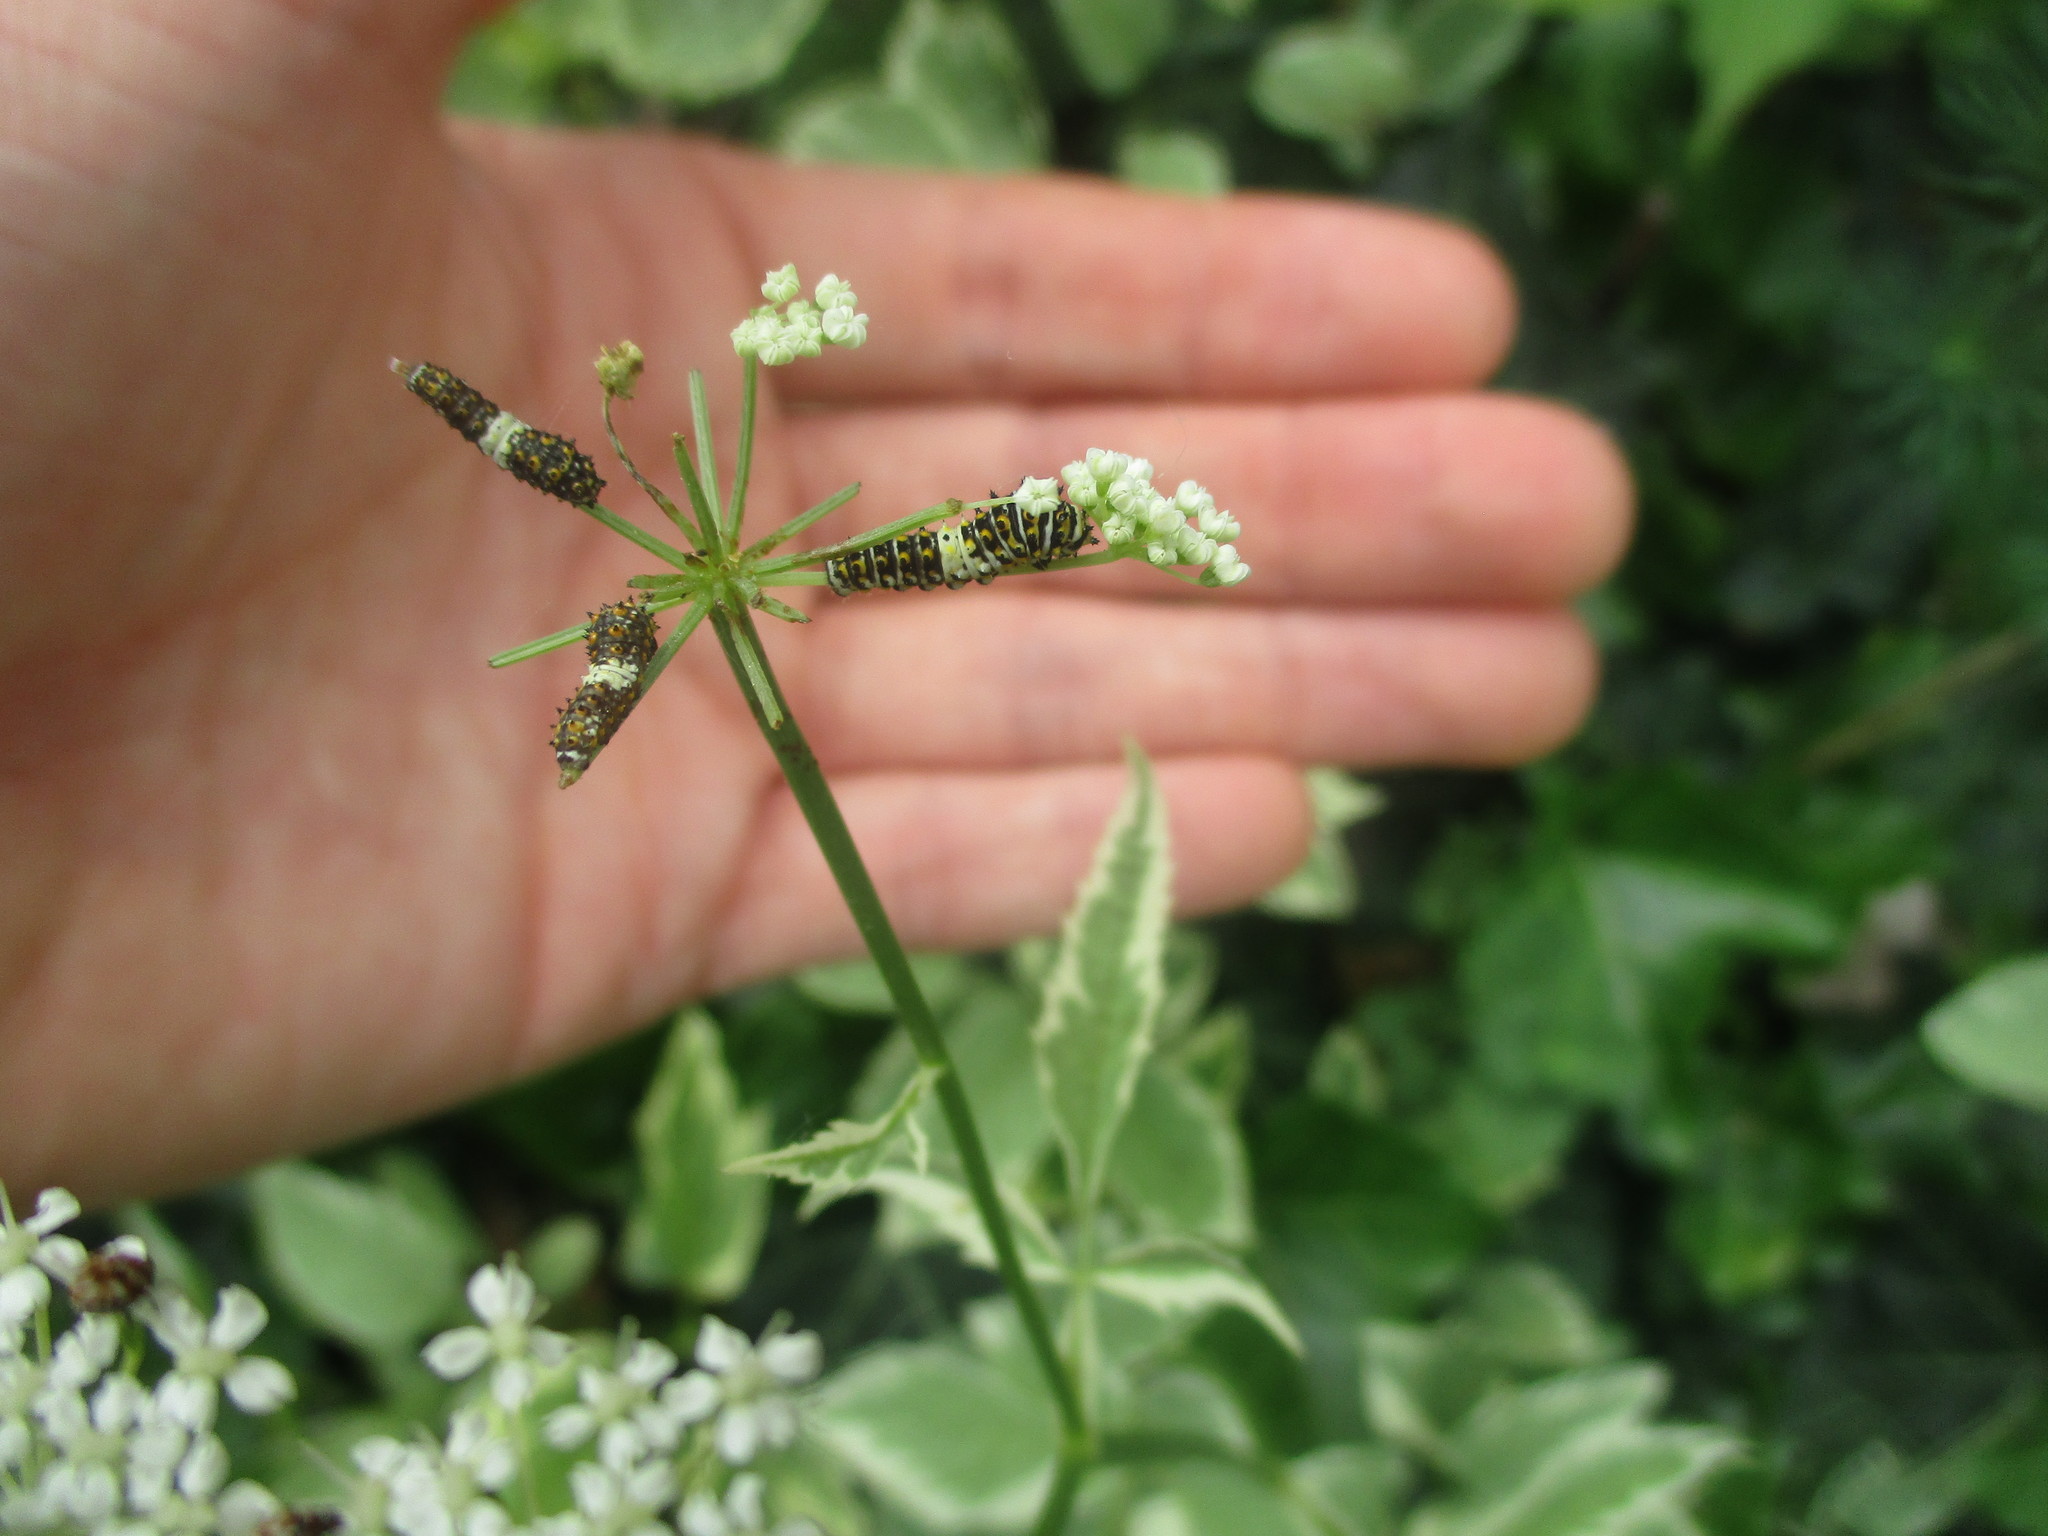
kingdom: Animalia
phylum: Arthropoda
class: Insecta
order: Lepidoptera
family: Papilionidae
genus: Papilio
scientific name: Papilio polyxenes
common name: Black swallowtail
